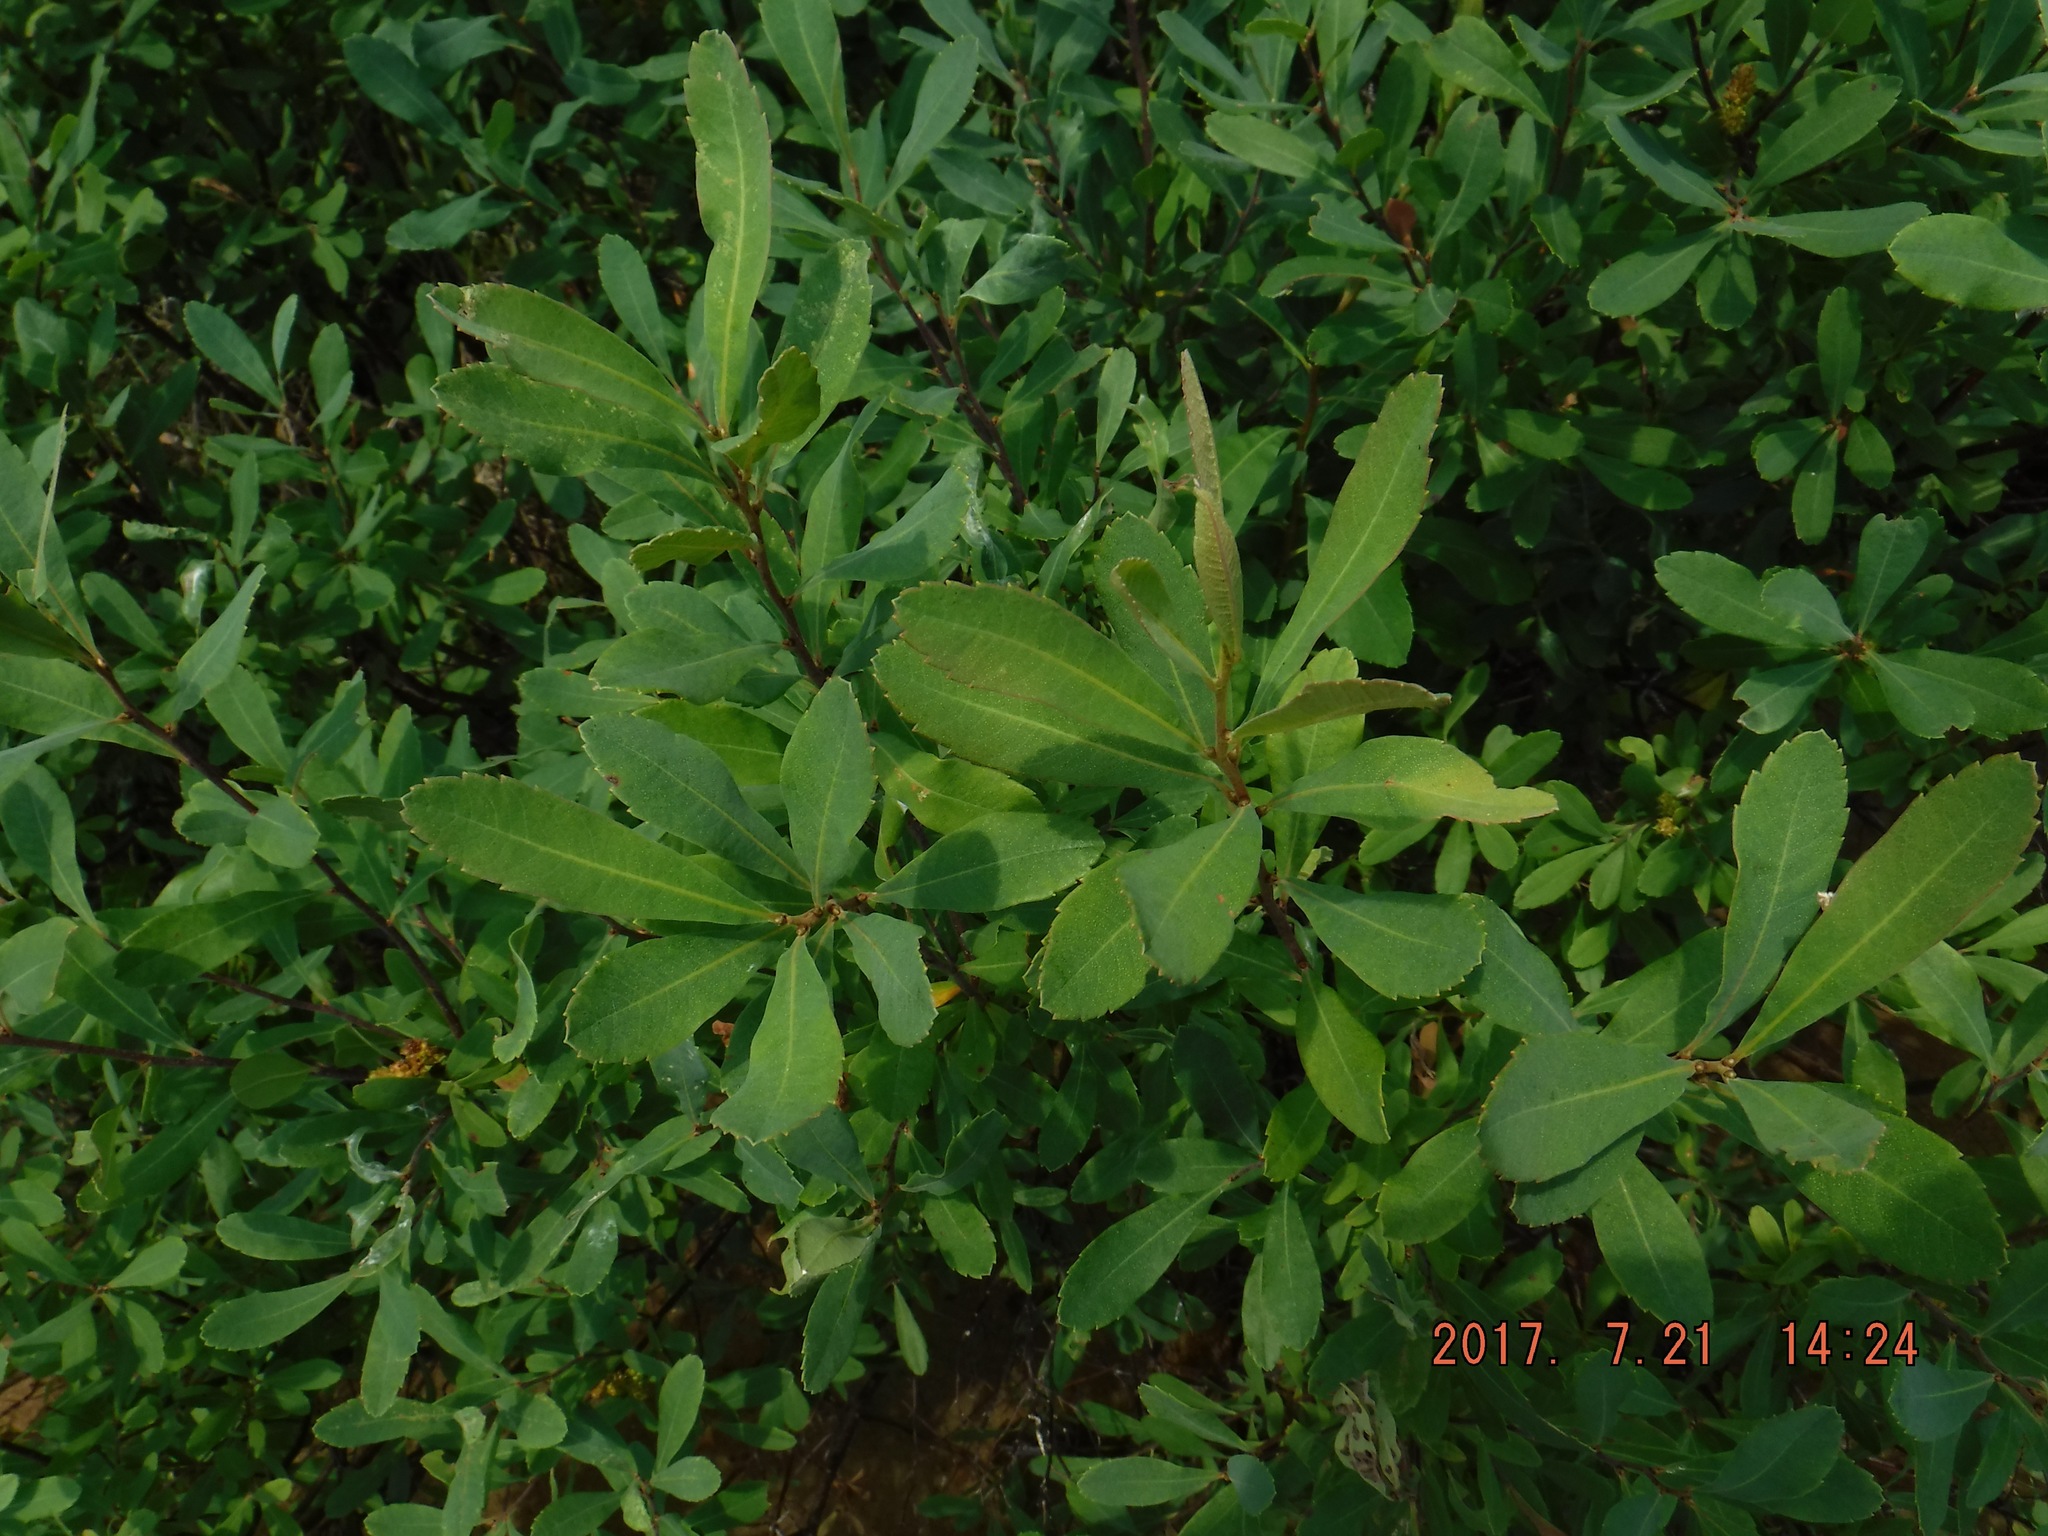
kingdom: Plantae
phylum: Tracheophyta
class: Magnoliopsida
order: Fagales
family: Myricaceae
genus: Myrica
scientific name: Myrica gale
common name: Sweet gale
